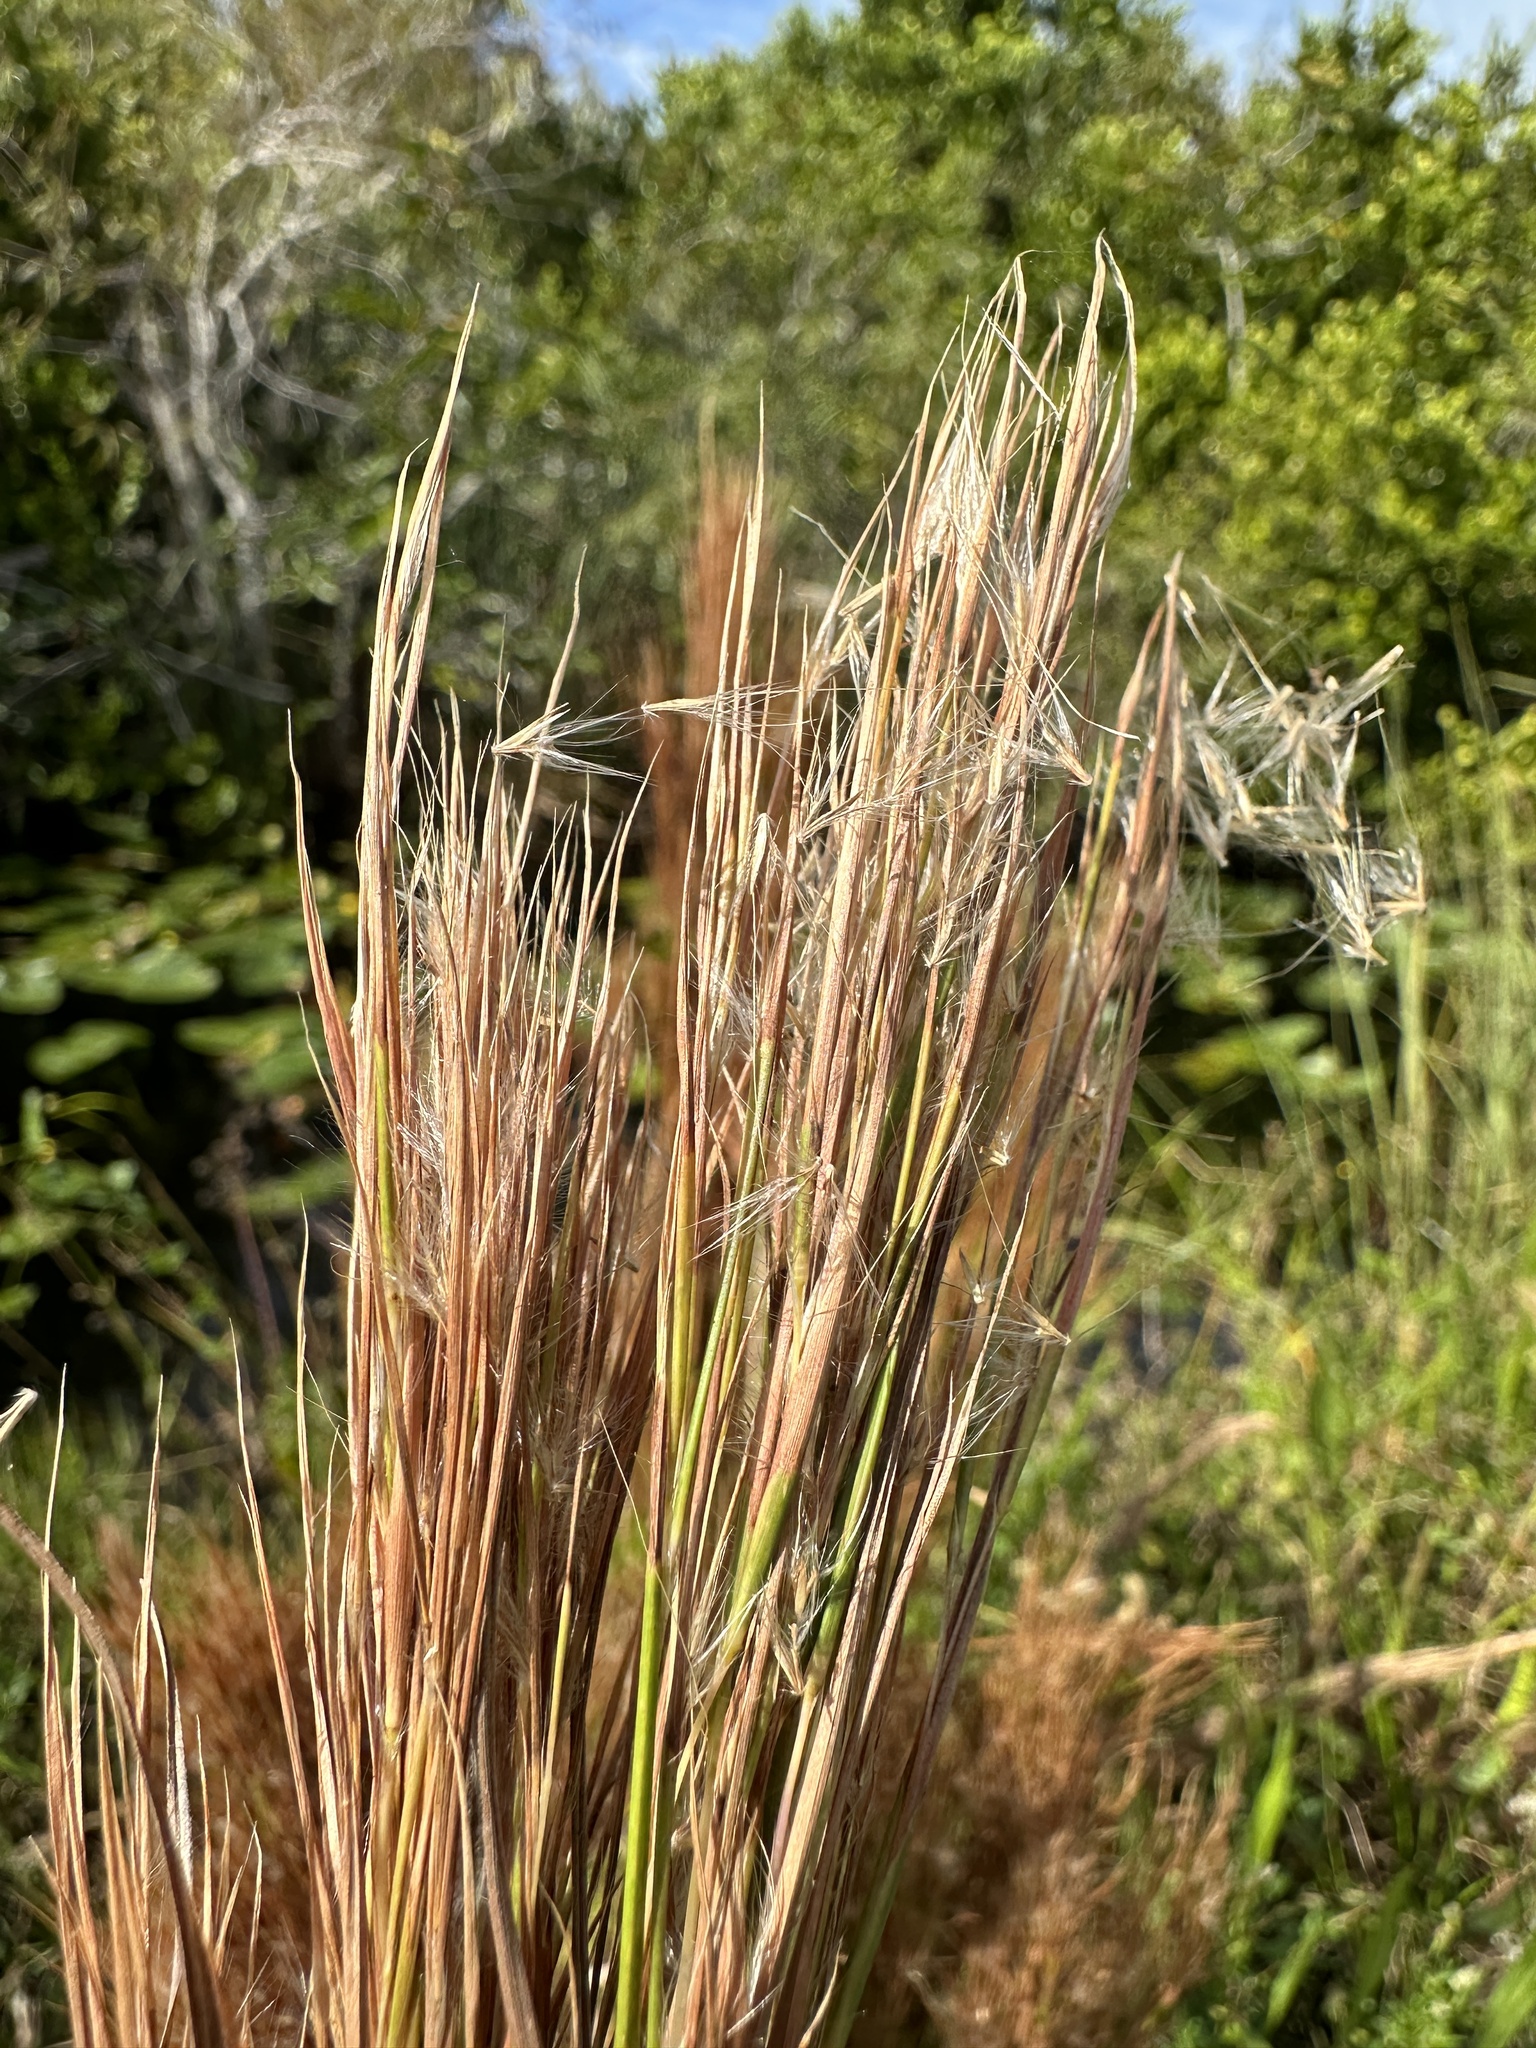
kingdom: Plantae
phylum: Tracheophyta
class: Liliopsida
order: Poales
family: Poaceae
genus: Andropogon
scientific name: Andropogon tenuispatheus
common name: Bushy bluestem
